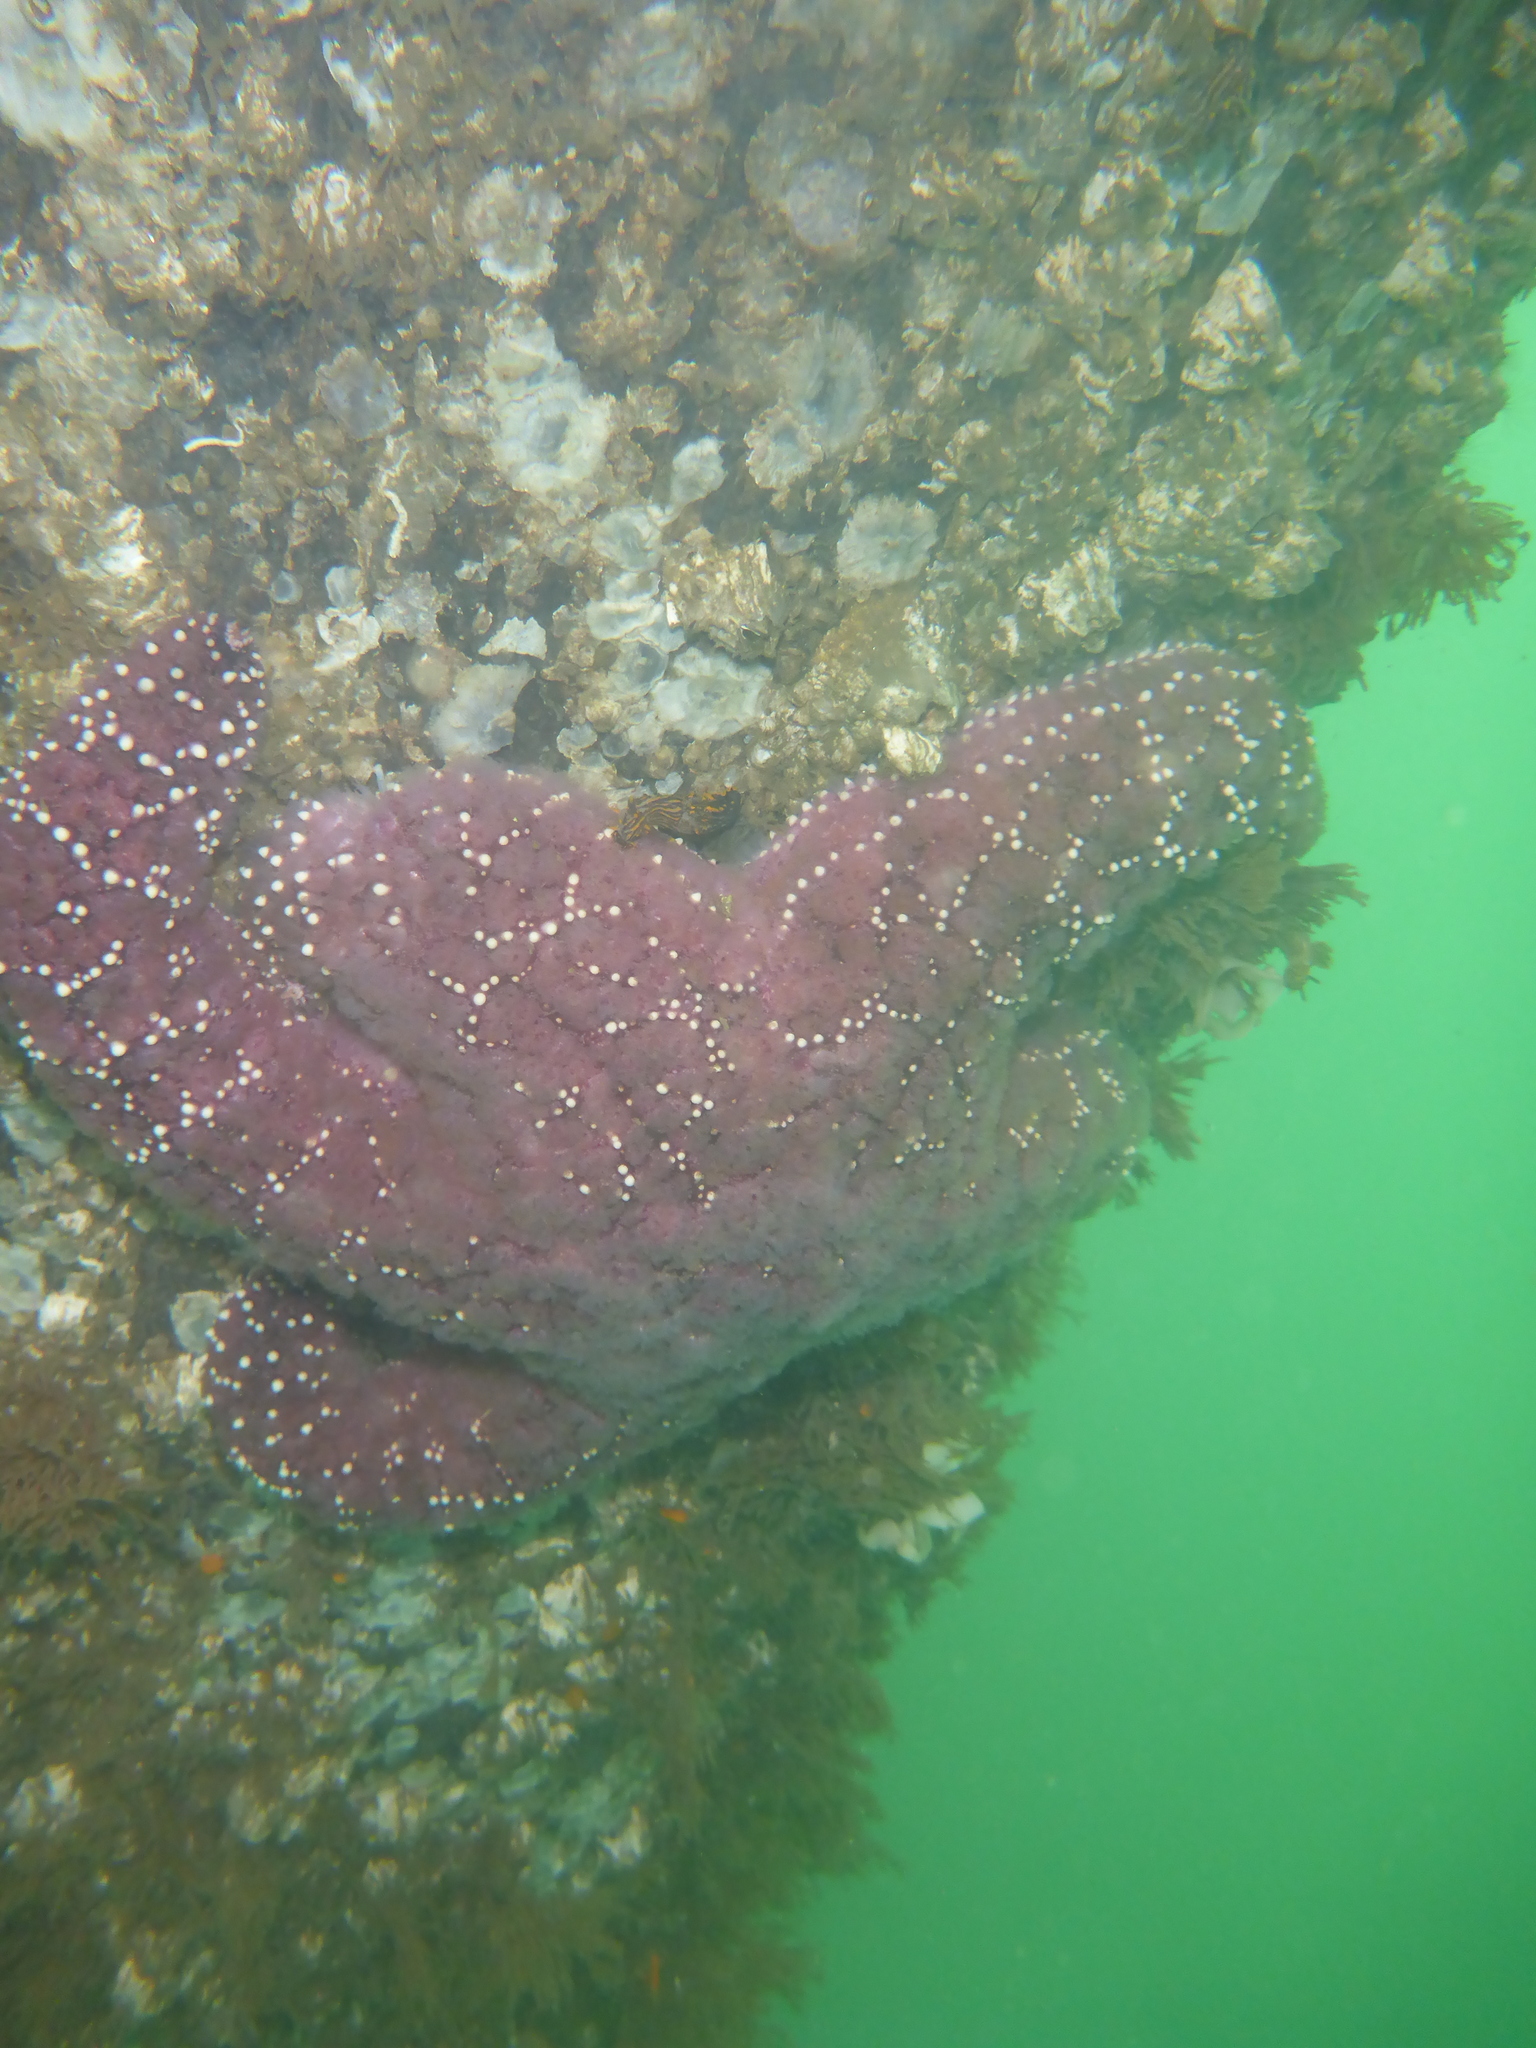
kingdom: Animalia
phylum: Echinodermata
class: Asteroidea
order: Forcipulatida
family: Asteriidae
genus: Pisaster
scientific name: Pisaster ochraceus
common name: Ochre stars
